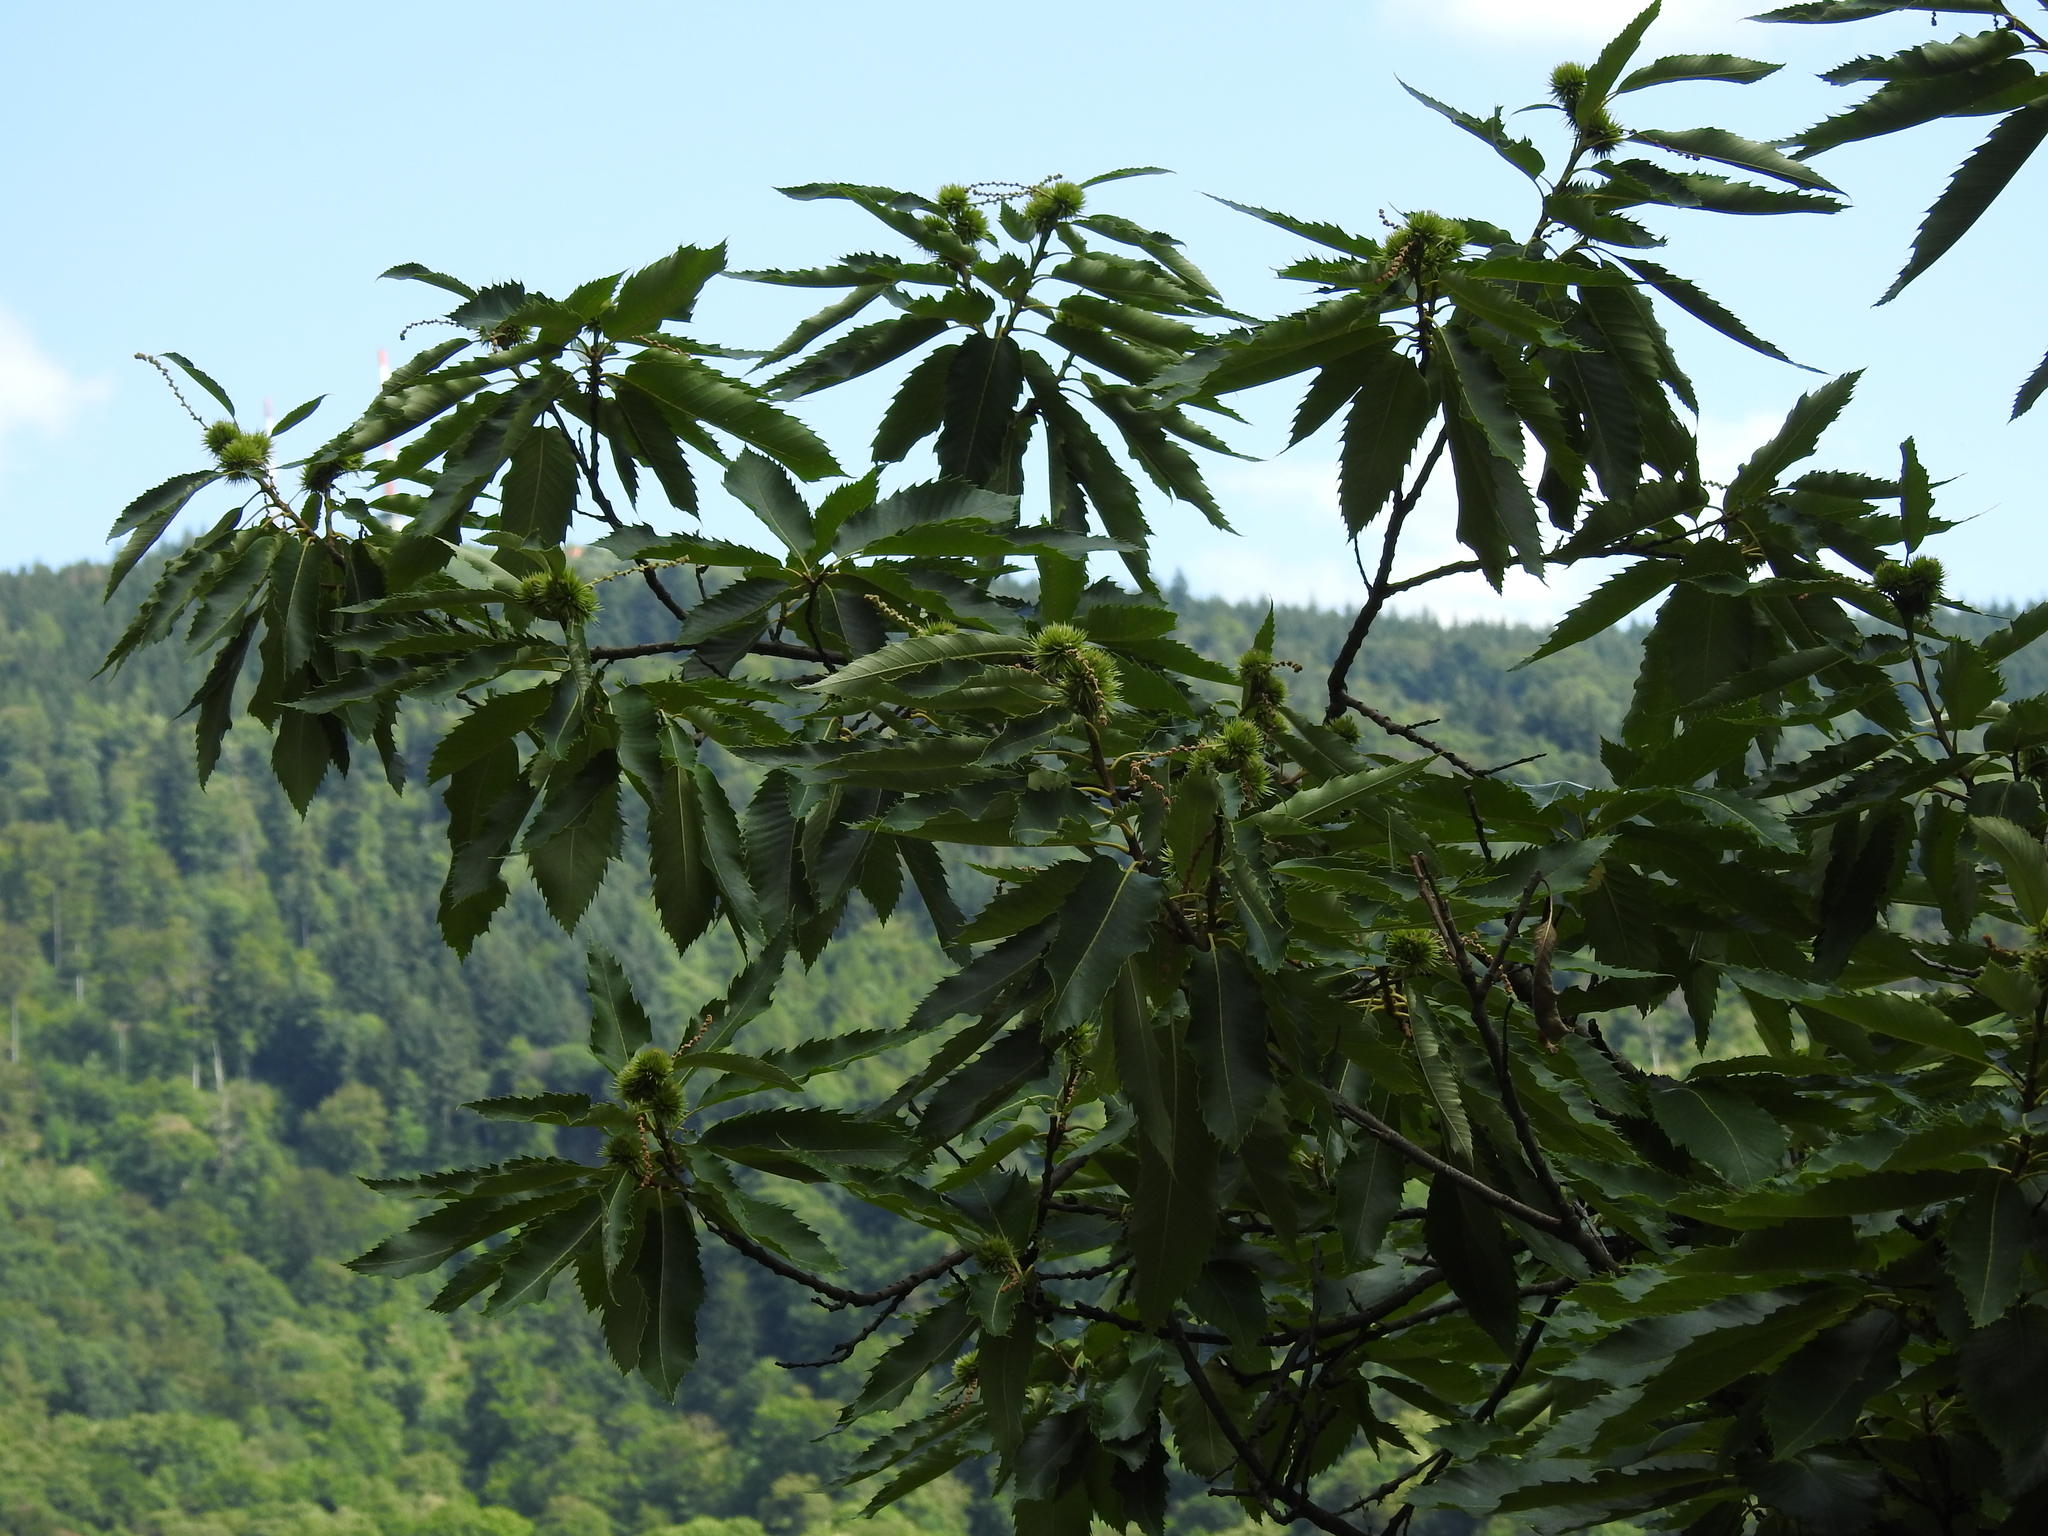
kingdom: Plantae
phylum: Tracheophyta
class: Magnoliopsida
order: Fagales
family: Fagaceae
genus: Castanea
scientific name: Castanea sativa
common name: Sweet chestnut
